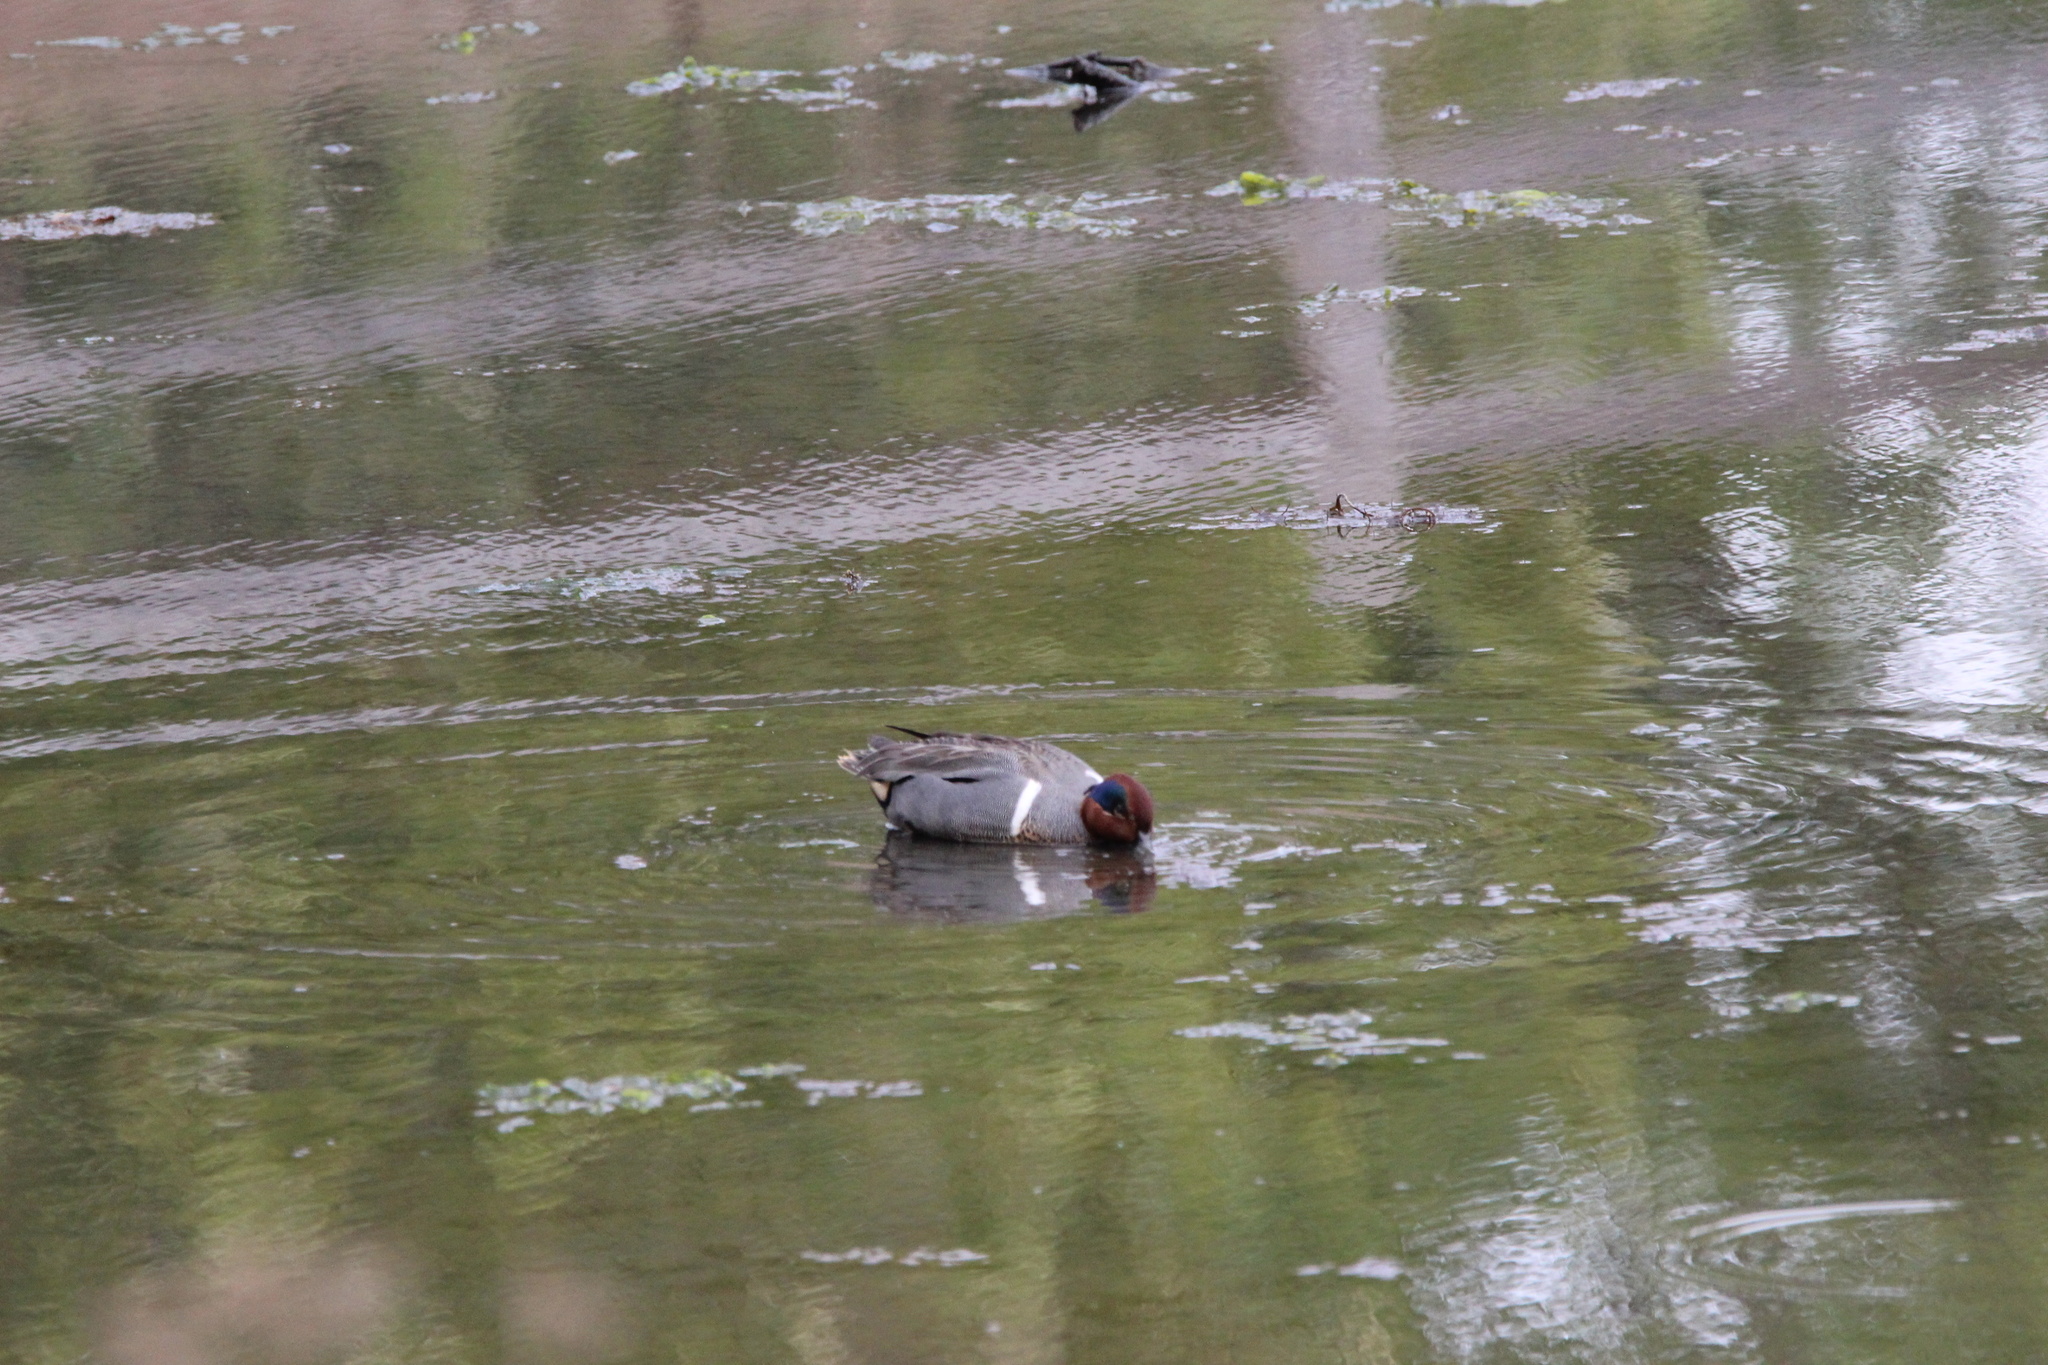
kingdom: Animalia
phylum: Chordata
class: Aves
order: Anseriformes
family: Anatidae
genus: Anas
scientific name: Anas carolinensis
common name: Green-winged teal
